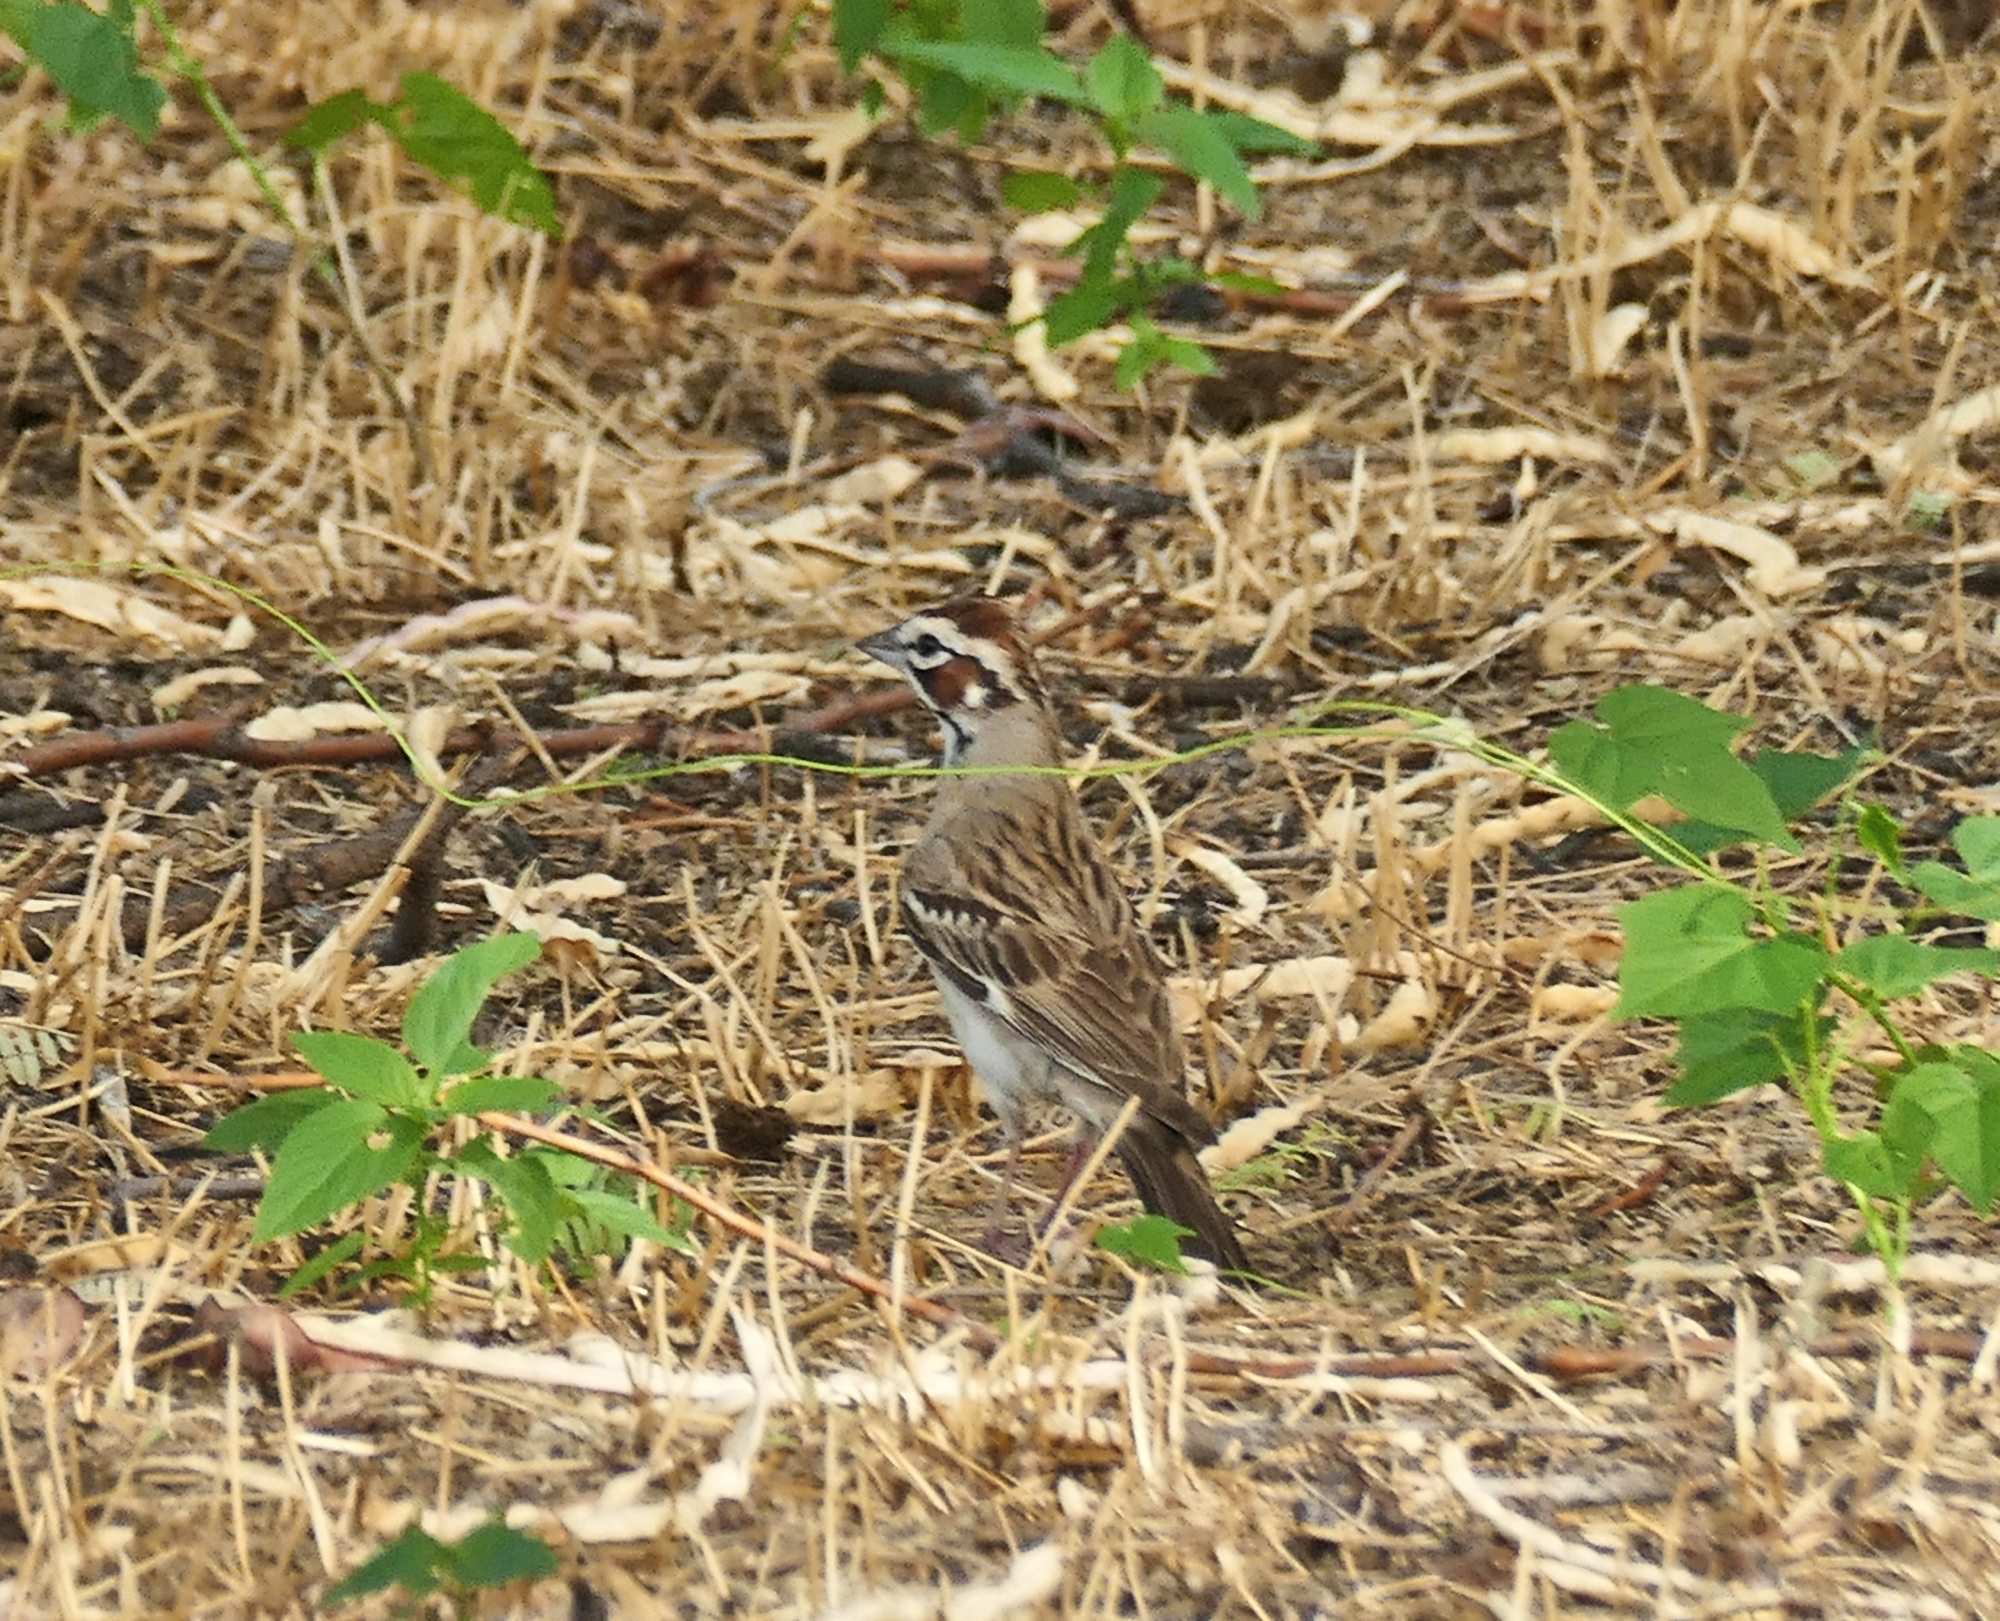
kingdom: Animalia
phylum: Chordata
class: Aves
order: Passeriformes
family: Passerellidae
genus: Chondestes
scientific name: Chondestes grammacus
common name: Lark sparrow
